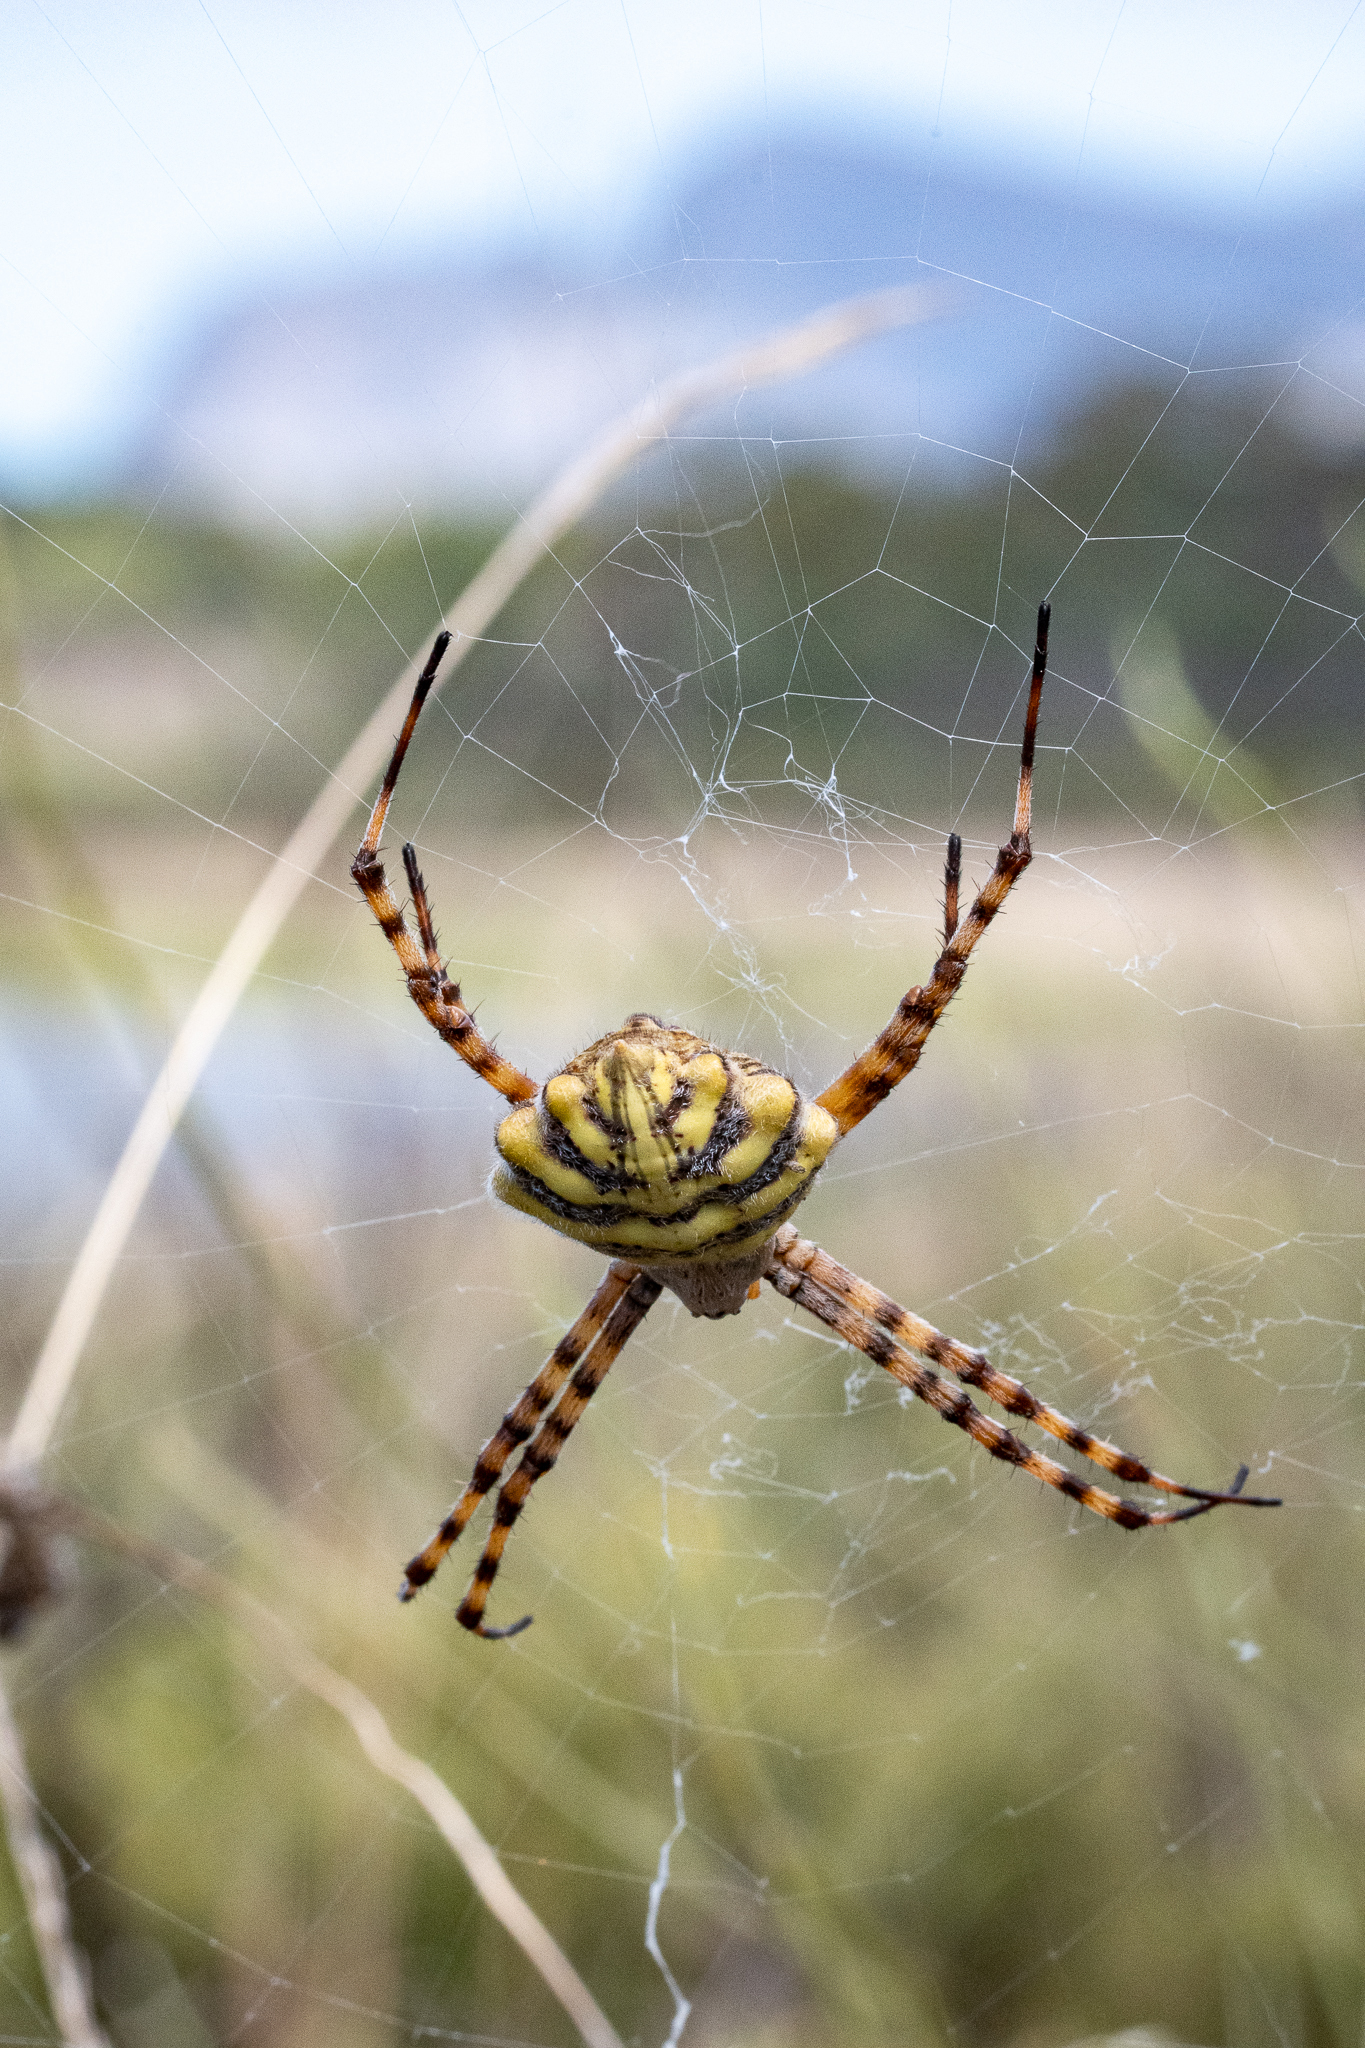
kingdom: Animalia
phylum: Arthropoda
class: Arachnida
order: Araneae
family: Araneidae
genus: Argiope
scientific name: Argiope australis
